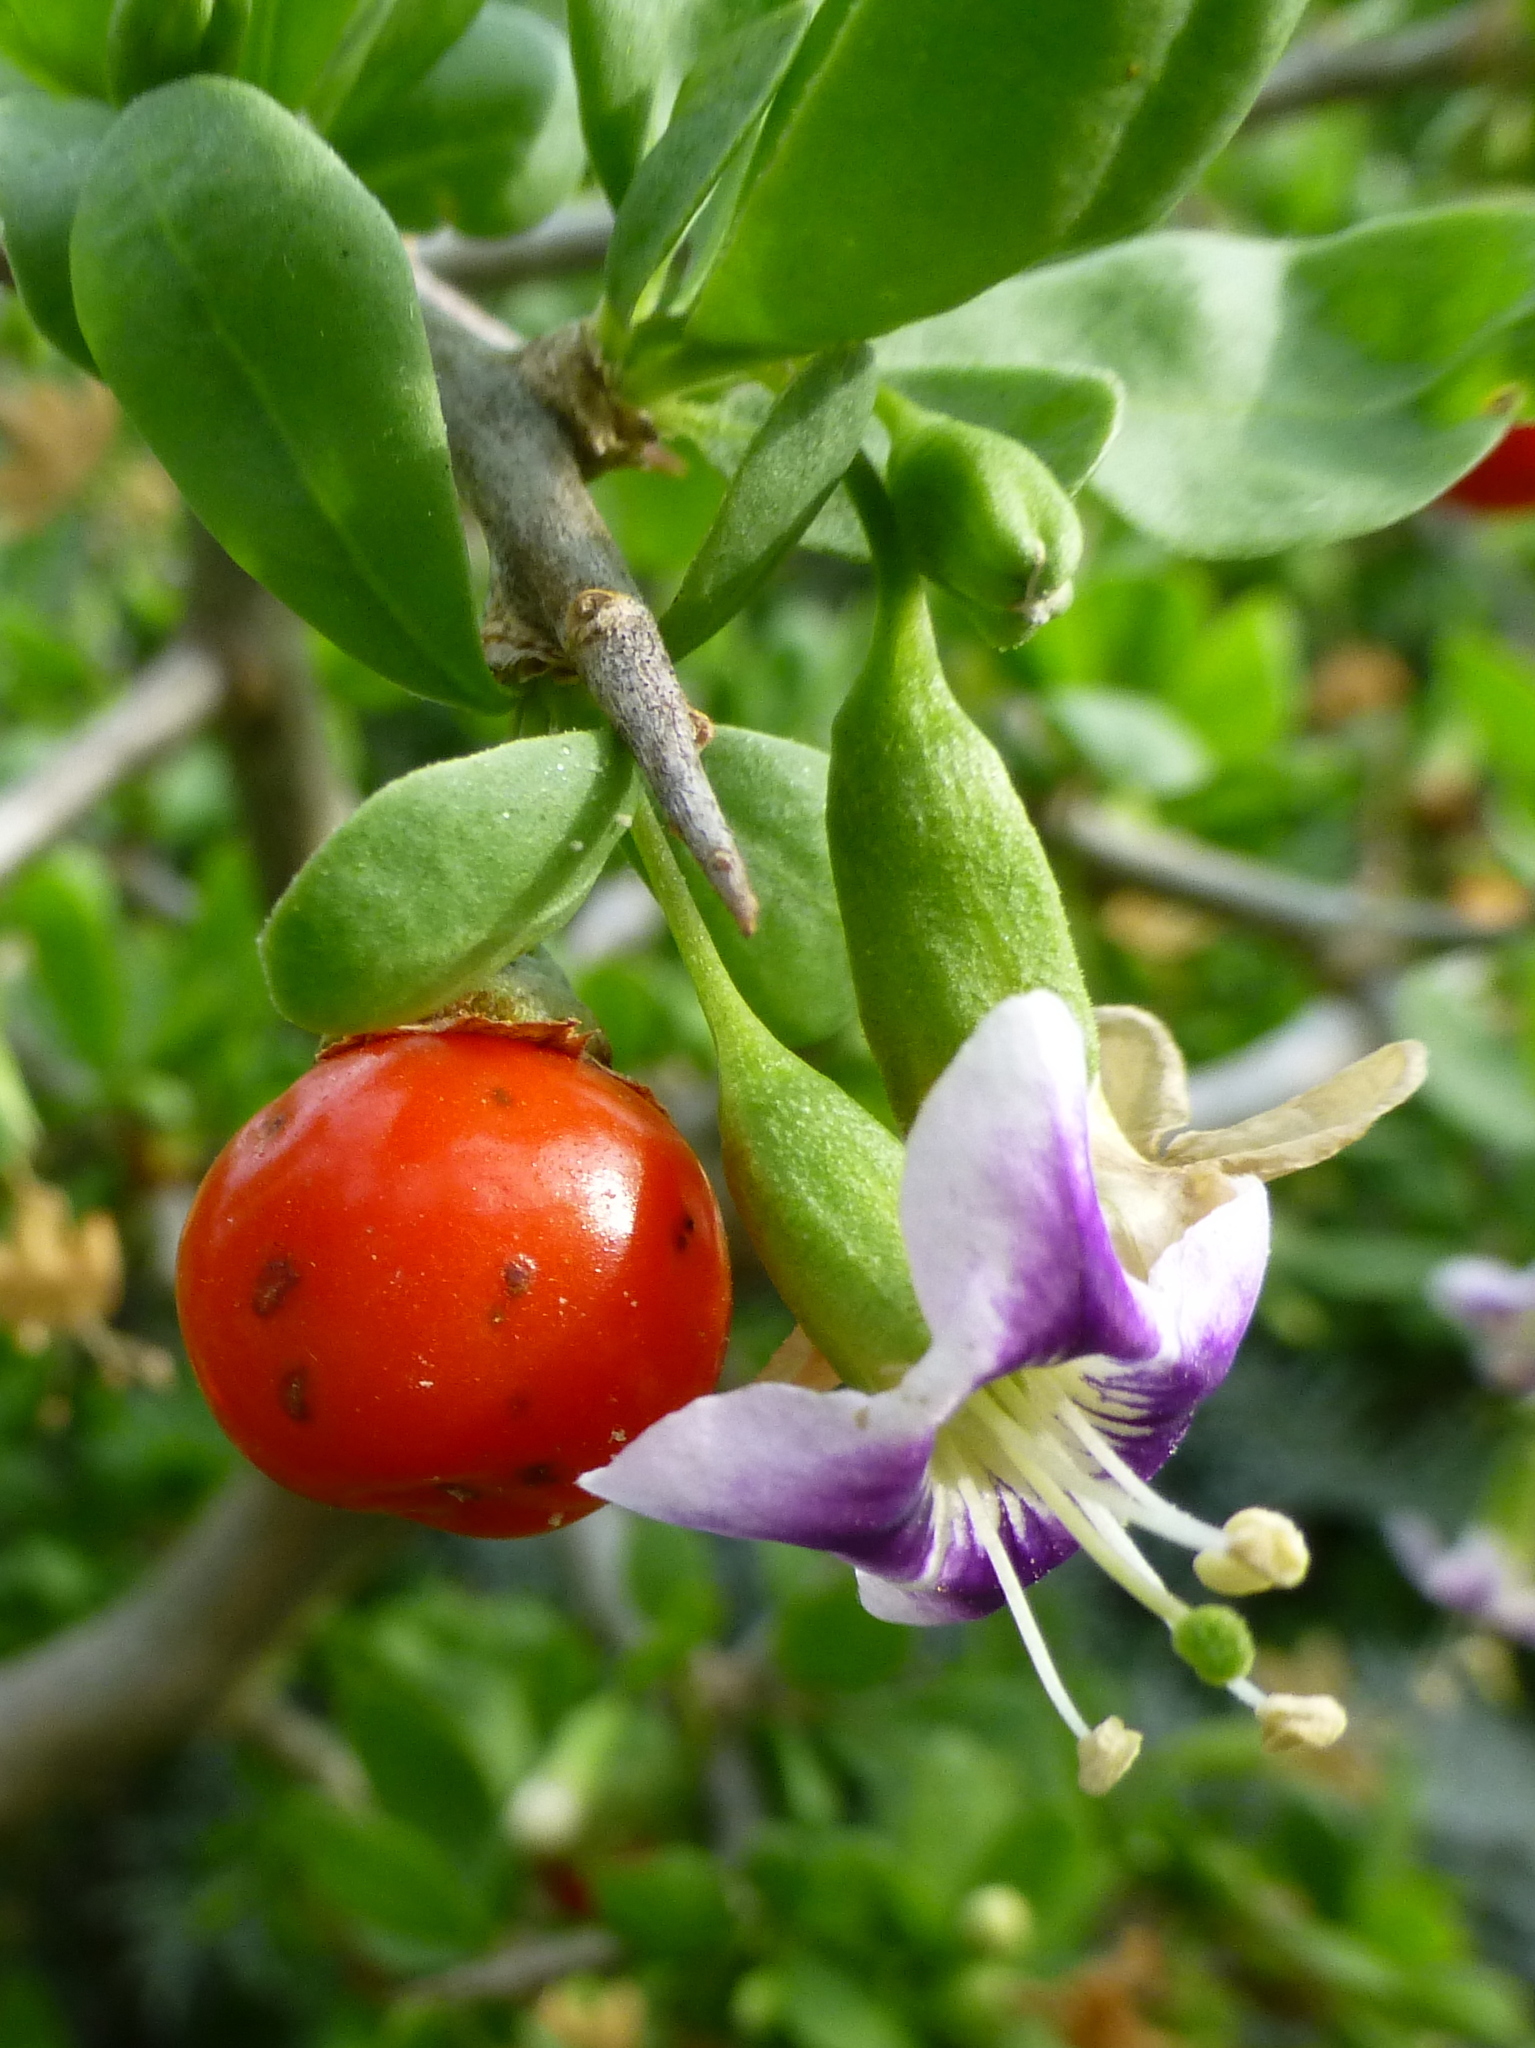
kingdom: Plantae
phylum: Tracheophyta
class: Magnoliopsida
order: Solanales
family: Solanaceae
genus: Lycium
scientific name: Lycium ferocissimum
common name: African boxthorn
